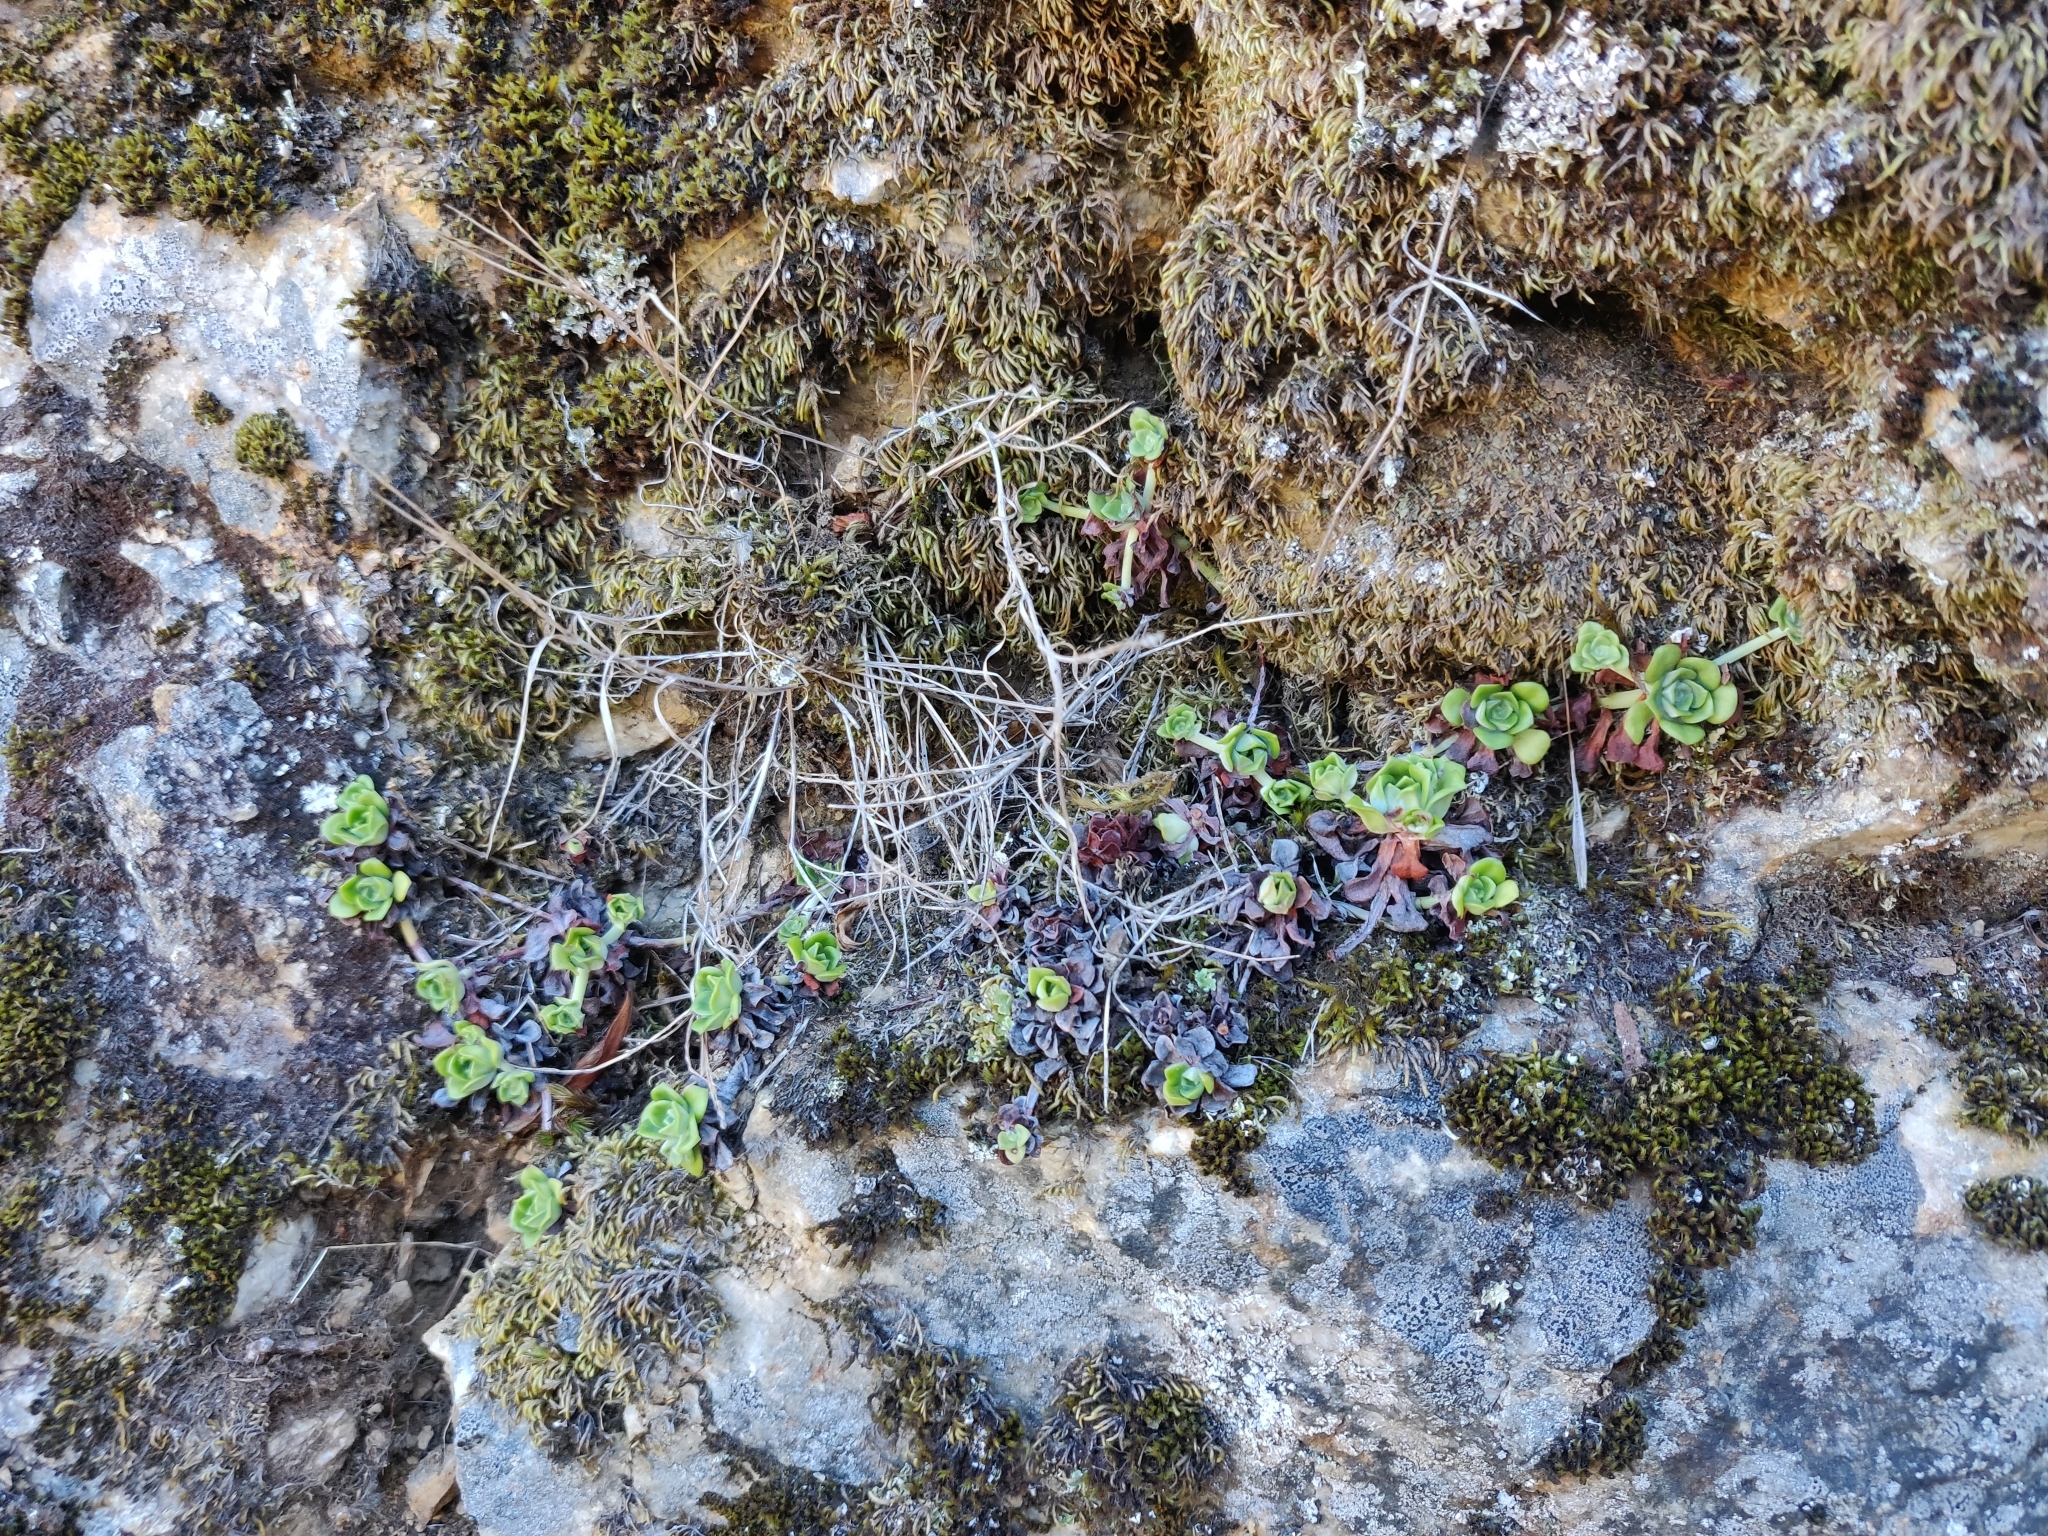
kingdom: Plantae
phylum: Tracheophyta
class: Magnoliopsida
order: Saxifragales
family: Crassulaceae
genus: Sedum
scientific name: Sedum spathulifolium
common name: Colorado stonecrop
